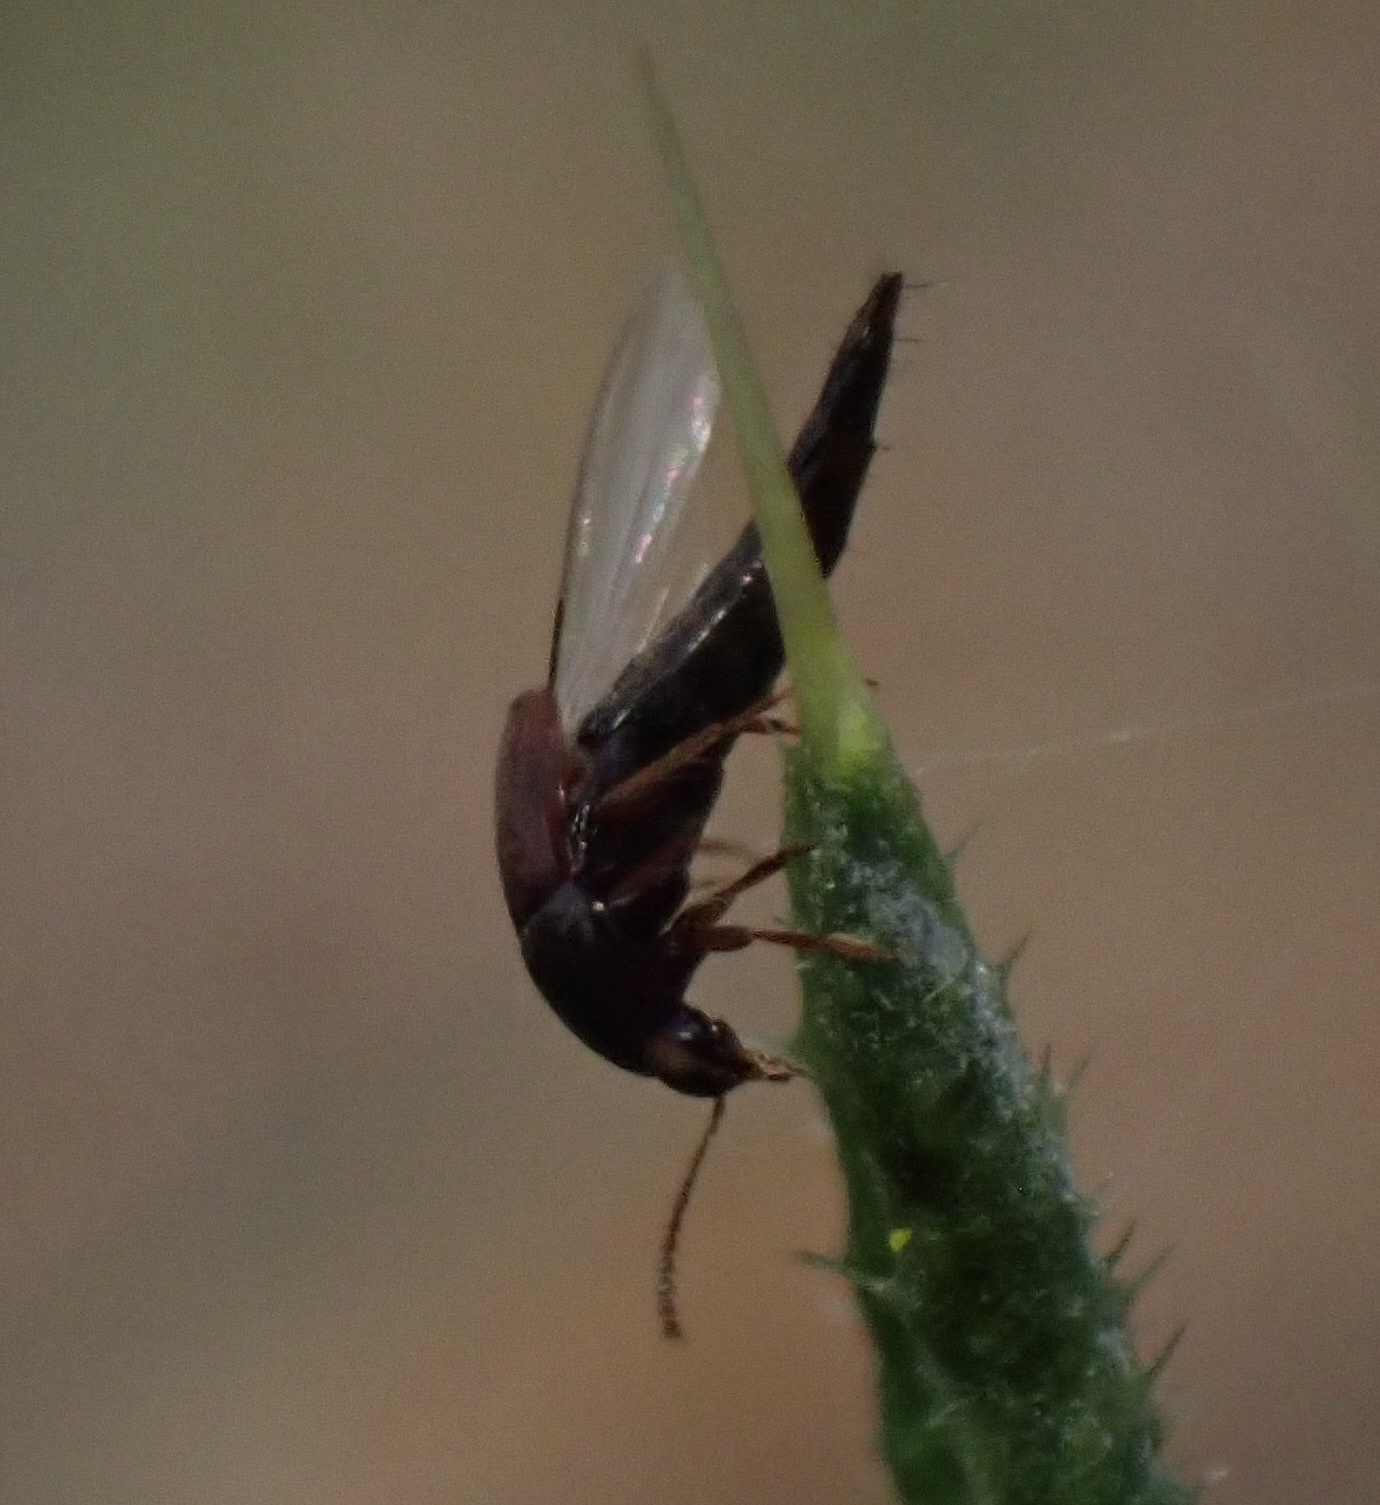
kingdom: Animalia
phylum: Arthropoda
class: Insecta
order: Coleoptera
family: Staphylinidae
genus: Sepedophilus
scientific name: Sepedophilus marshami
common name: Staph beetle
